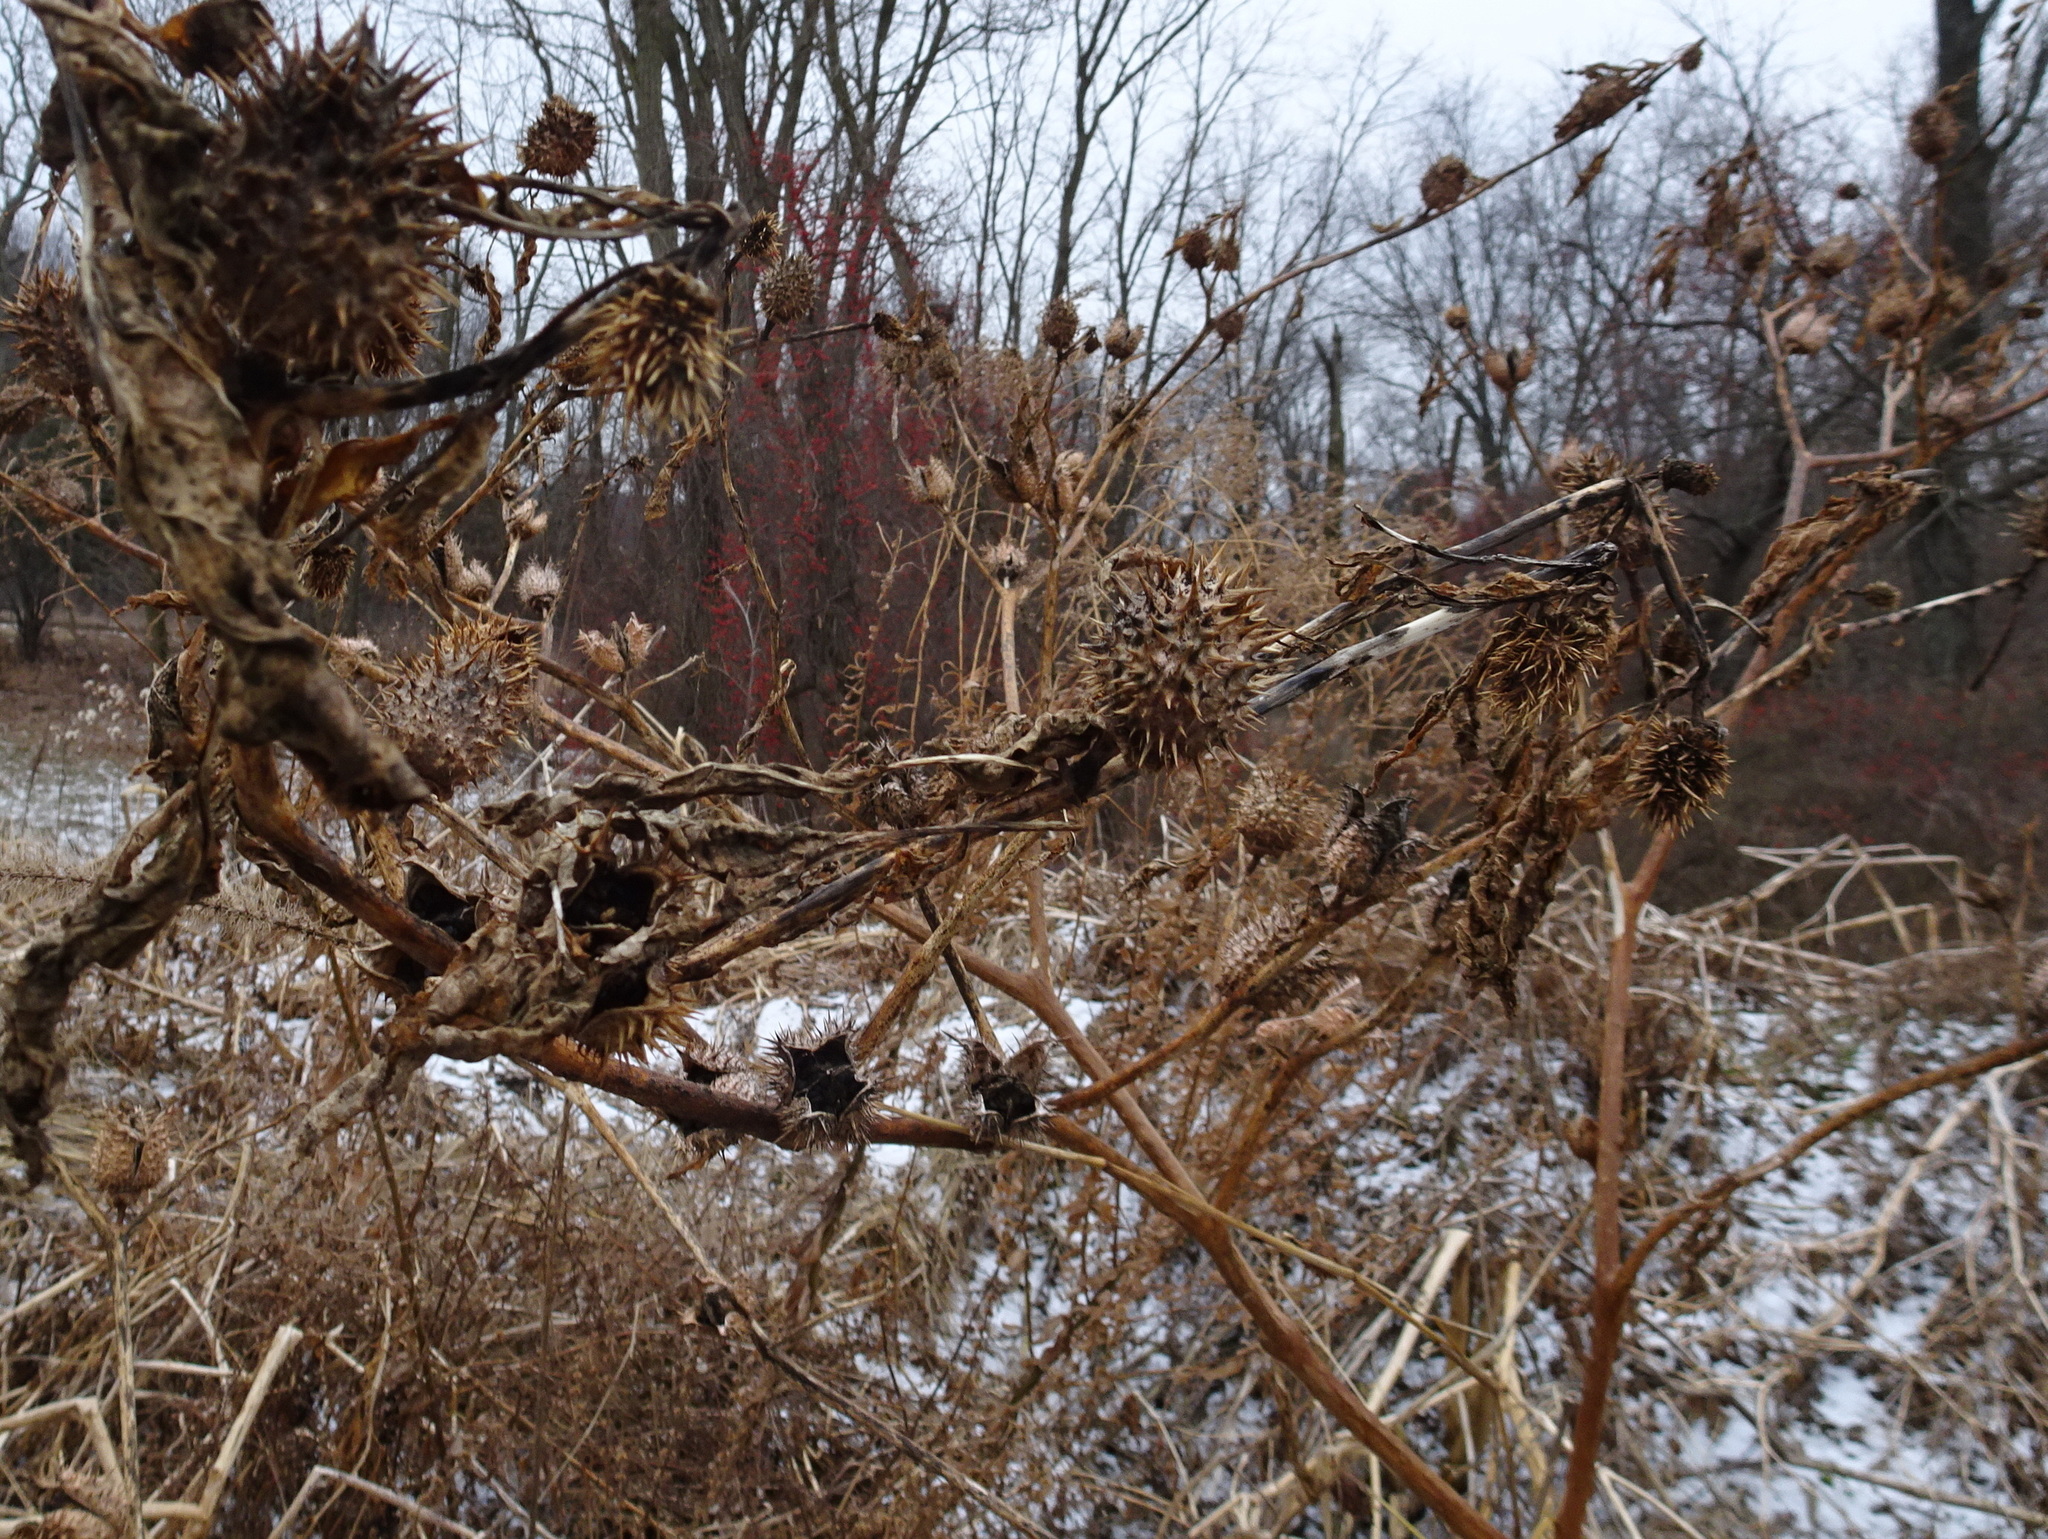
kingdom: Plantae
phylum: Tracheophyta
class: Magnoliopsida
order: Solanales
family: Solanaceae
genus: Datura
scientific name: Datura stramonium
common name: Thorn-apple
